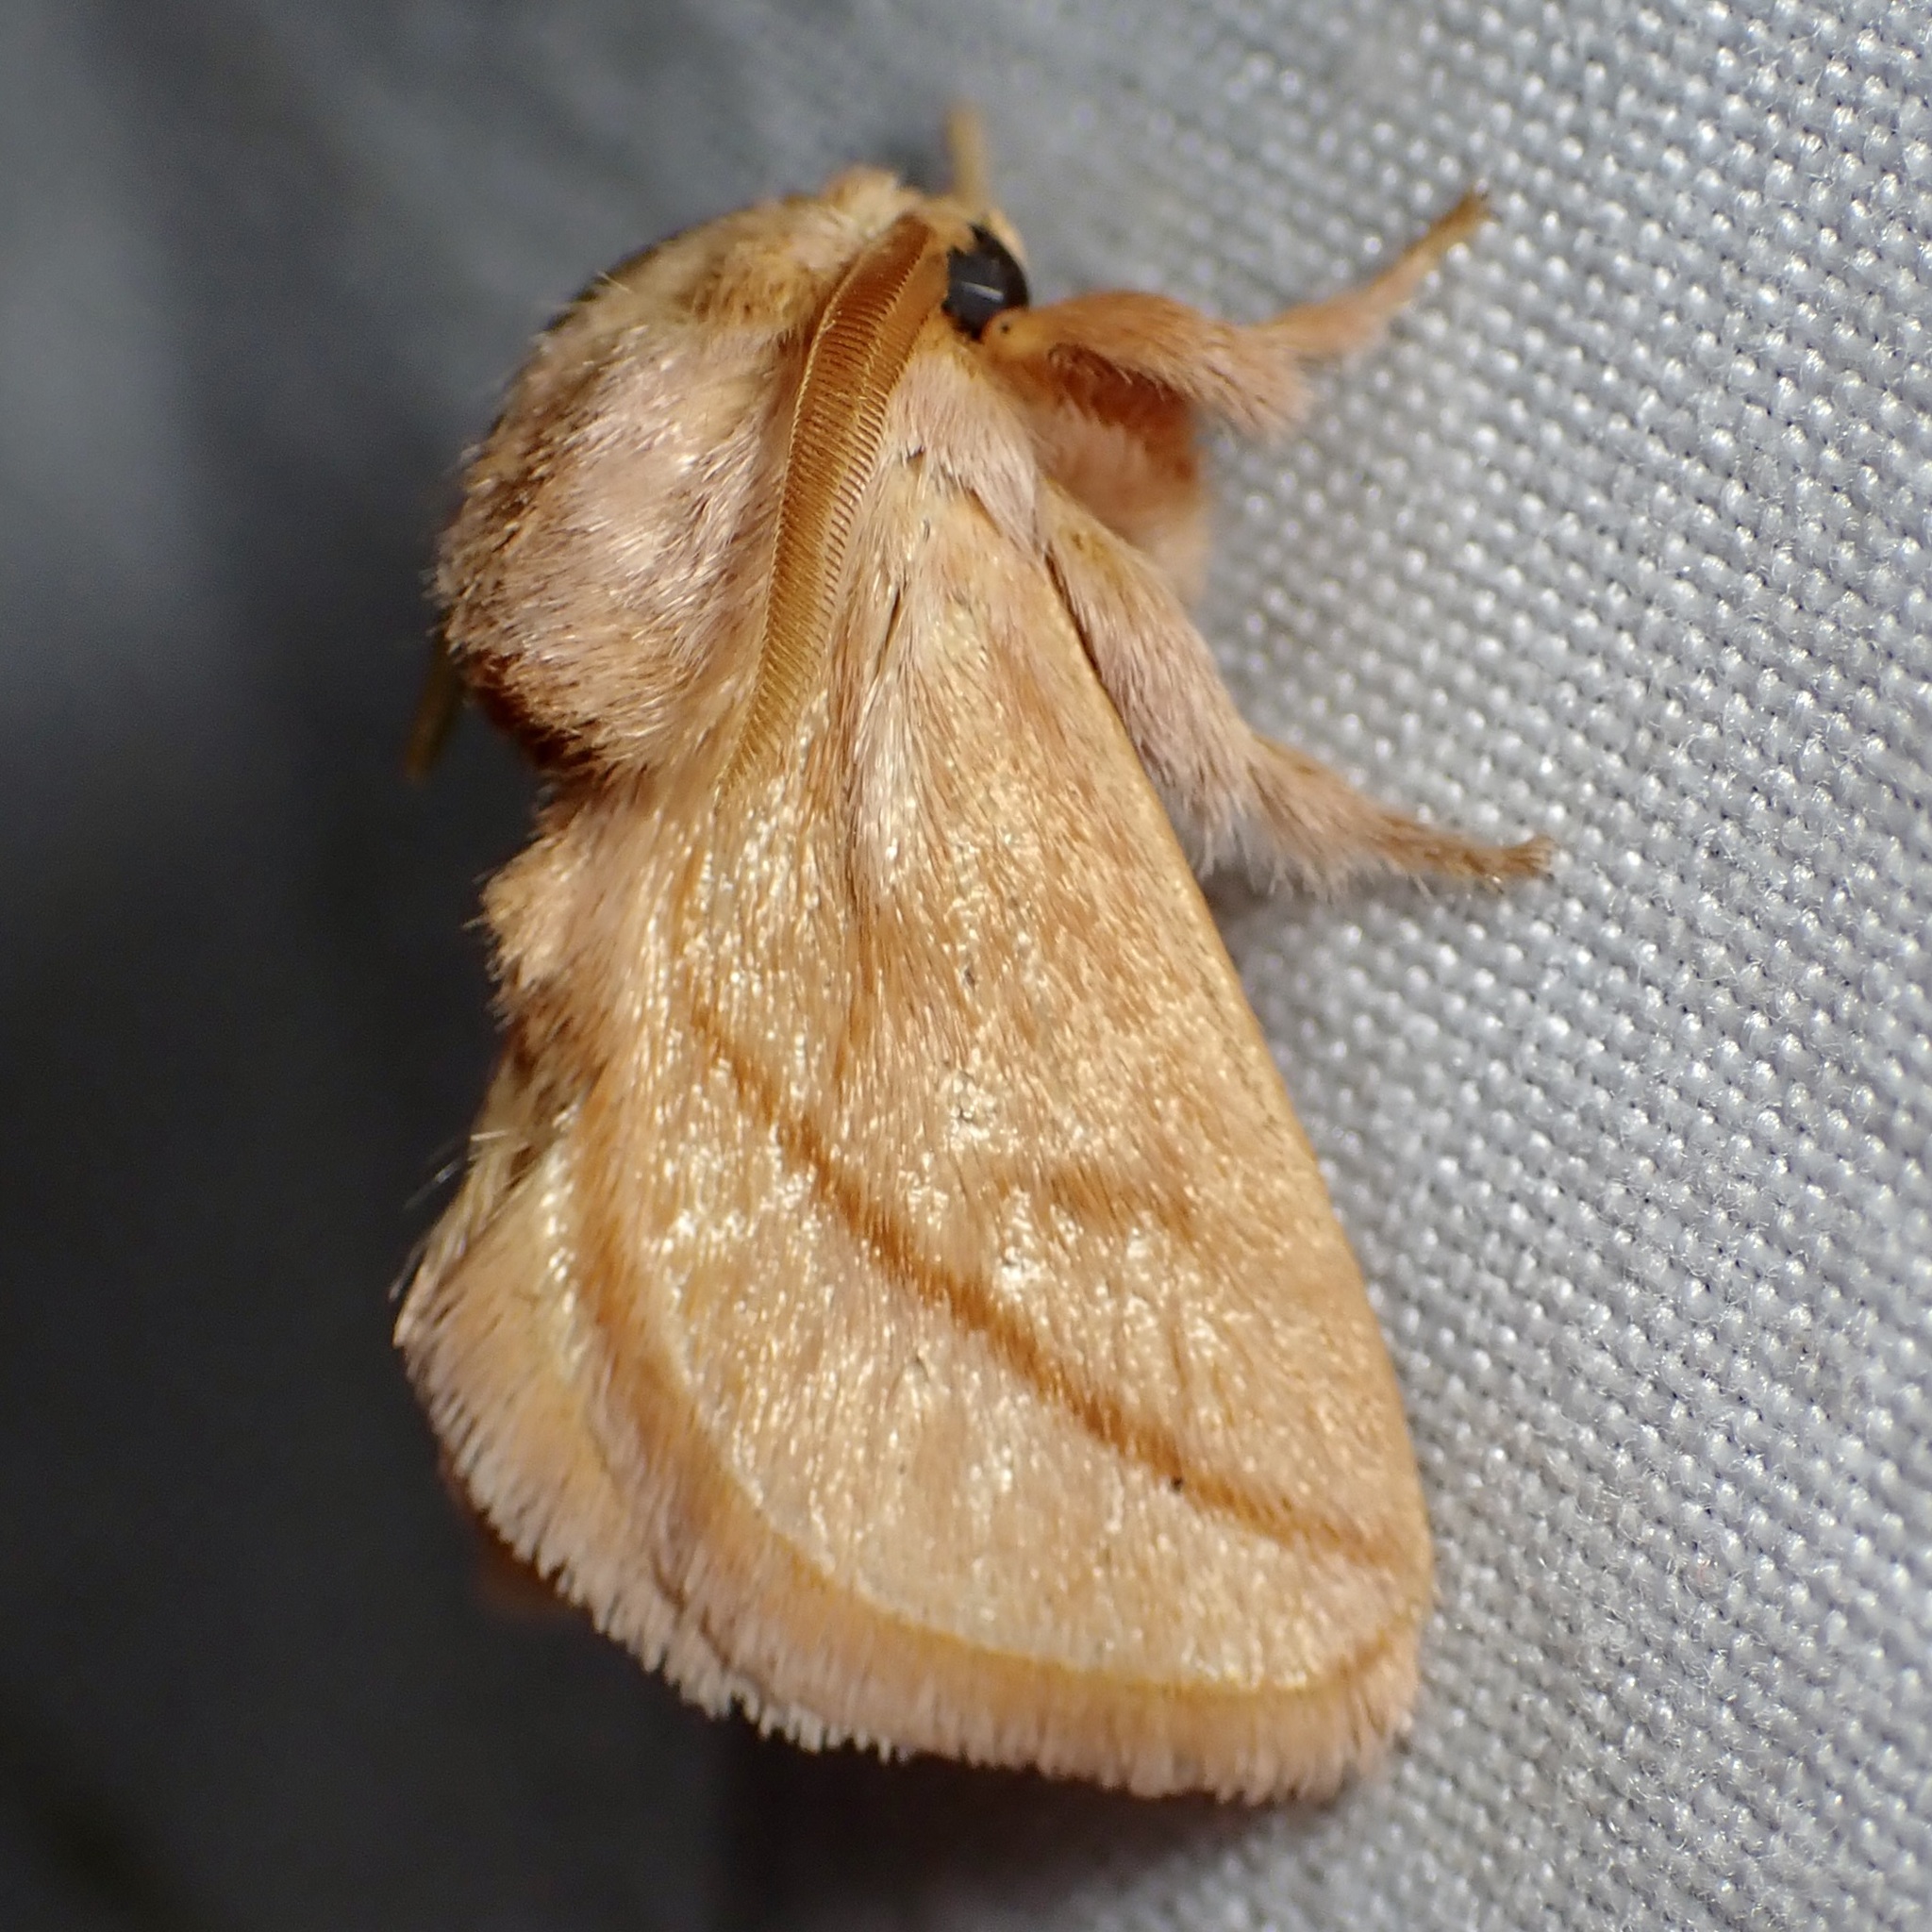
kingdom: Animalia
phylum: Arthropoda
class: Insecta
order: Lepidoptera
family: Limacodidae
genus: Perola
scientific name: Perola clara
